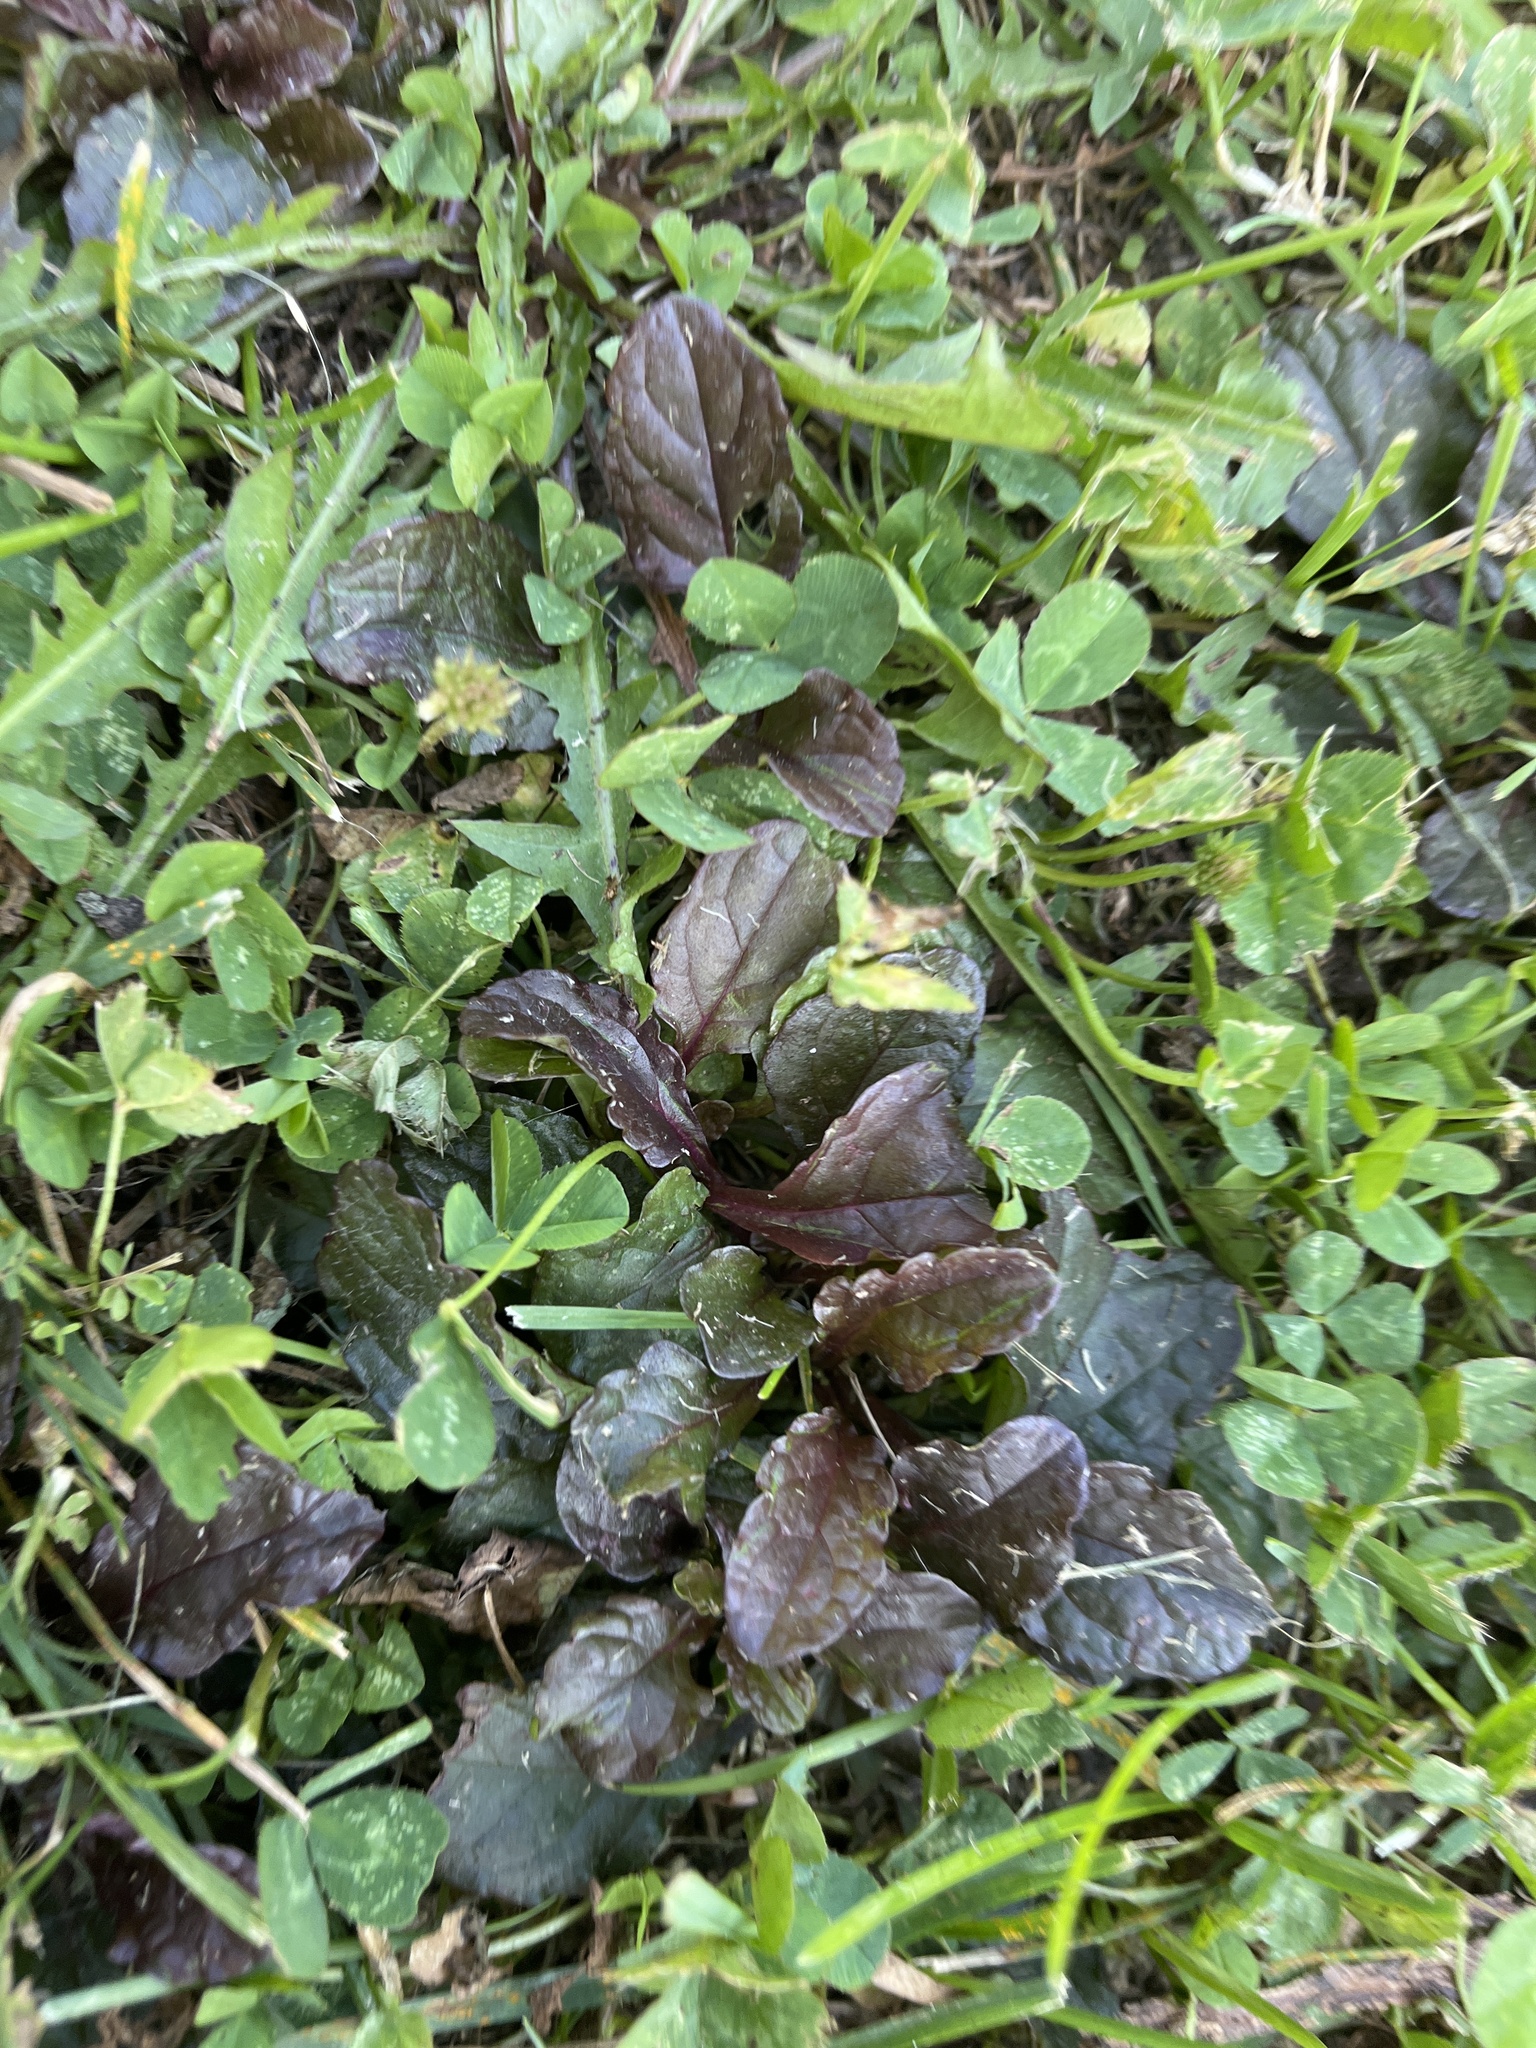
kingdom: Plantae
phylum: Tracheophyta
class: Magnoliopsida
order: Lamiales
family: Lamiaceae
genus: Ajuga
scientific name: Ajuga reptans
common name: Bugle
